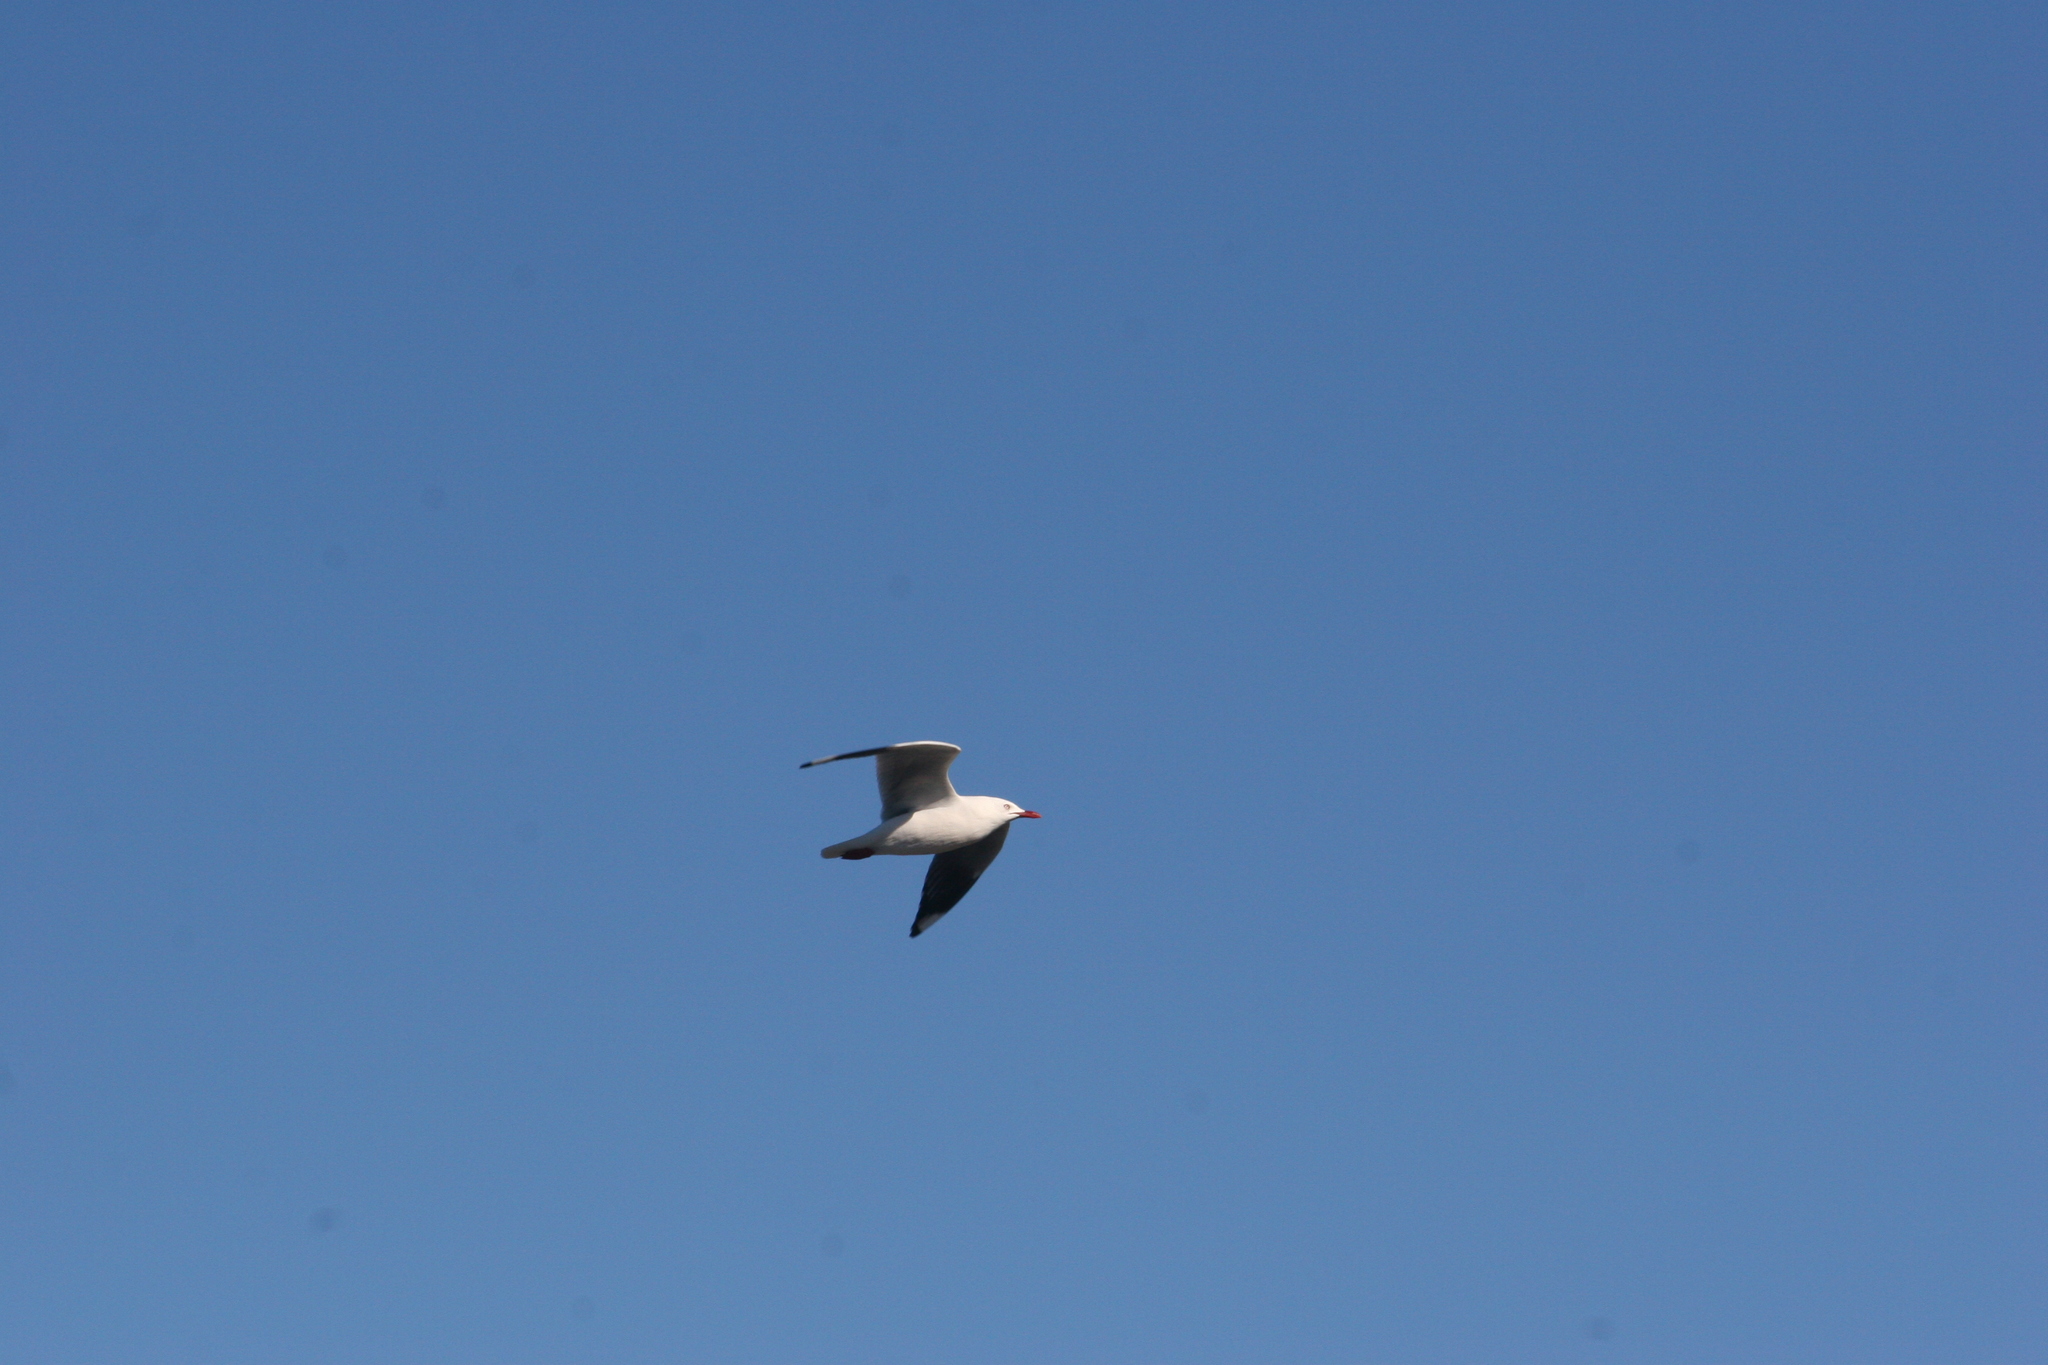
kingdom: Animalia
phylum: Chordata
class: Aves
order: Charadriiformes
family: Laridae
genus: Chroicocephalus
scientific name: Chroicocephalus novaehollandiae
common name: Silver gull
